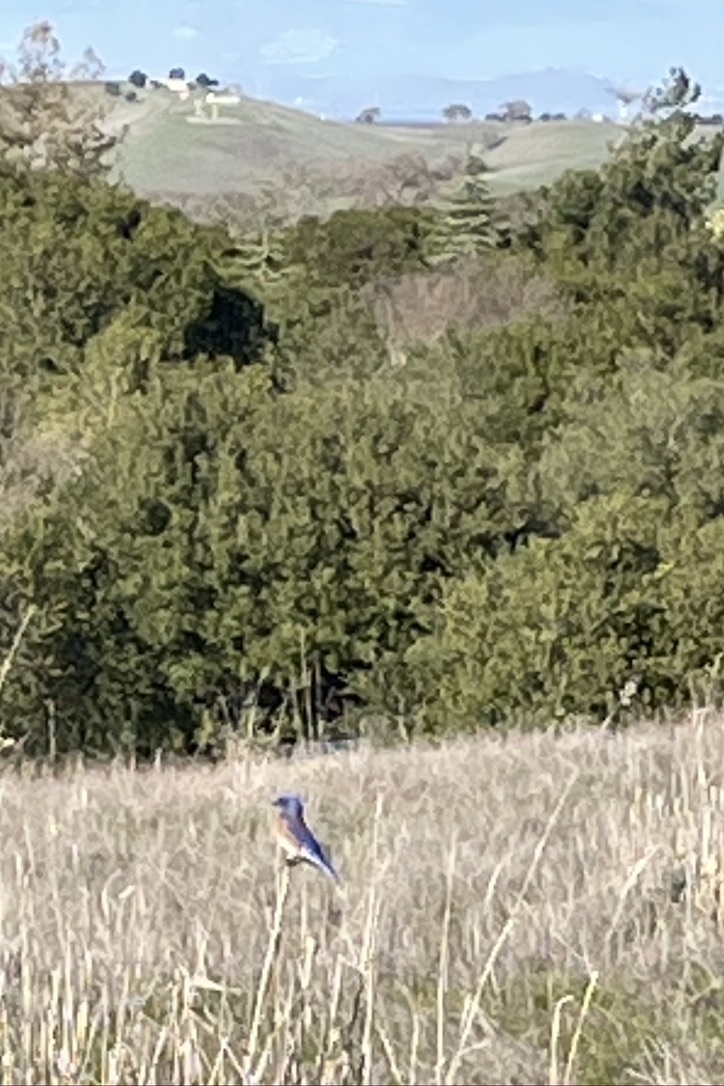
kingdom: Animalia
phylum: Chordata
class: Aves
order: Passeriformes
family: Turdidae
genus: Sialia
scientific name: Sialia mexicana
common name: Western bluebird
